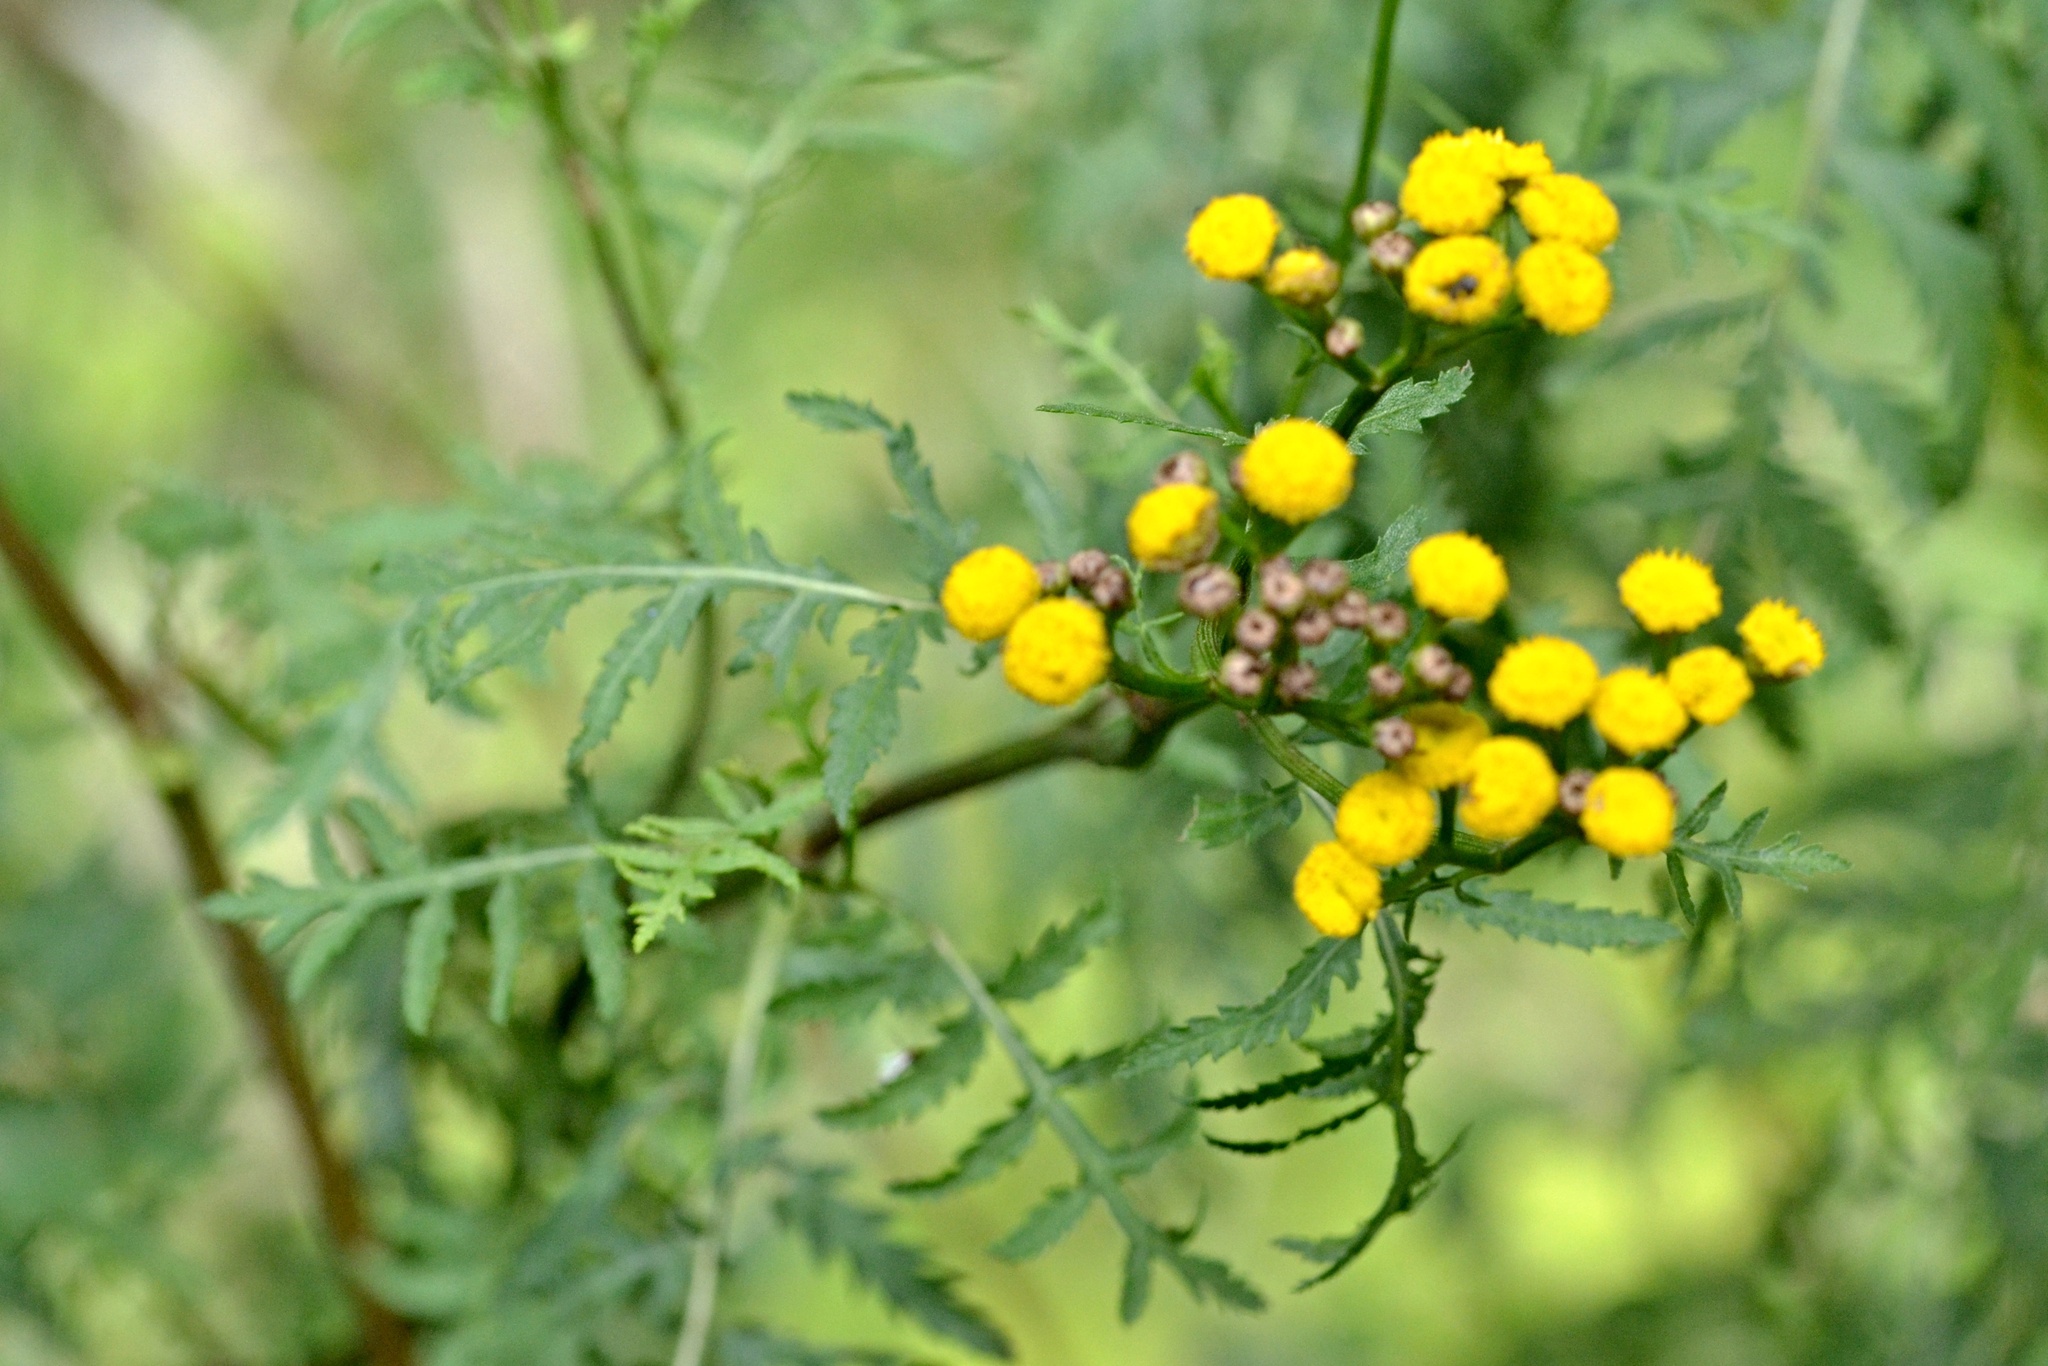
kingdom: Plantae
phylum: Tracheophyta
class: Magnoliopsida
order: Asterales
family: Asteraceae
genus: Tanacetum
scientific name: Tanacetum vulgare
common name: Common tansy
